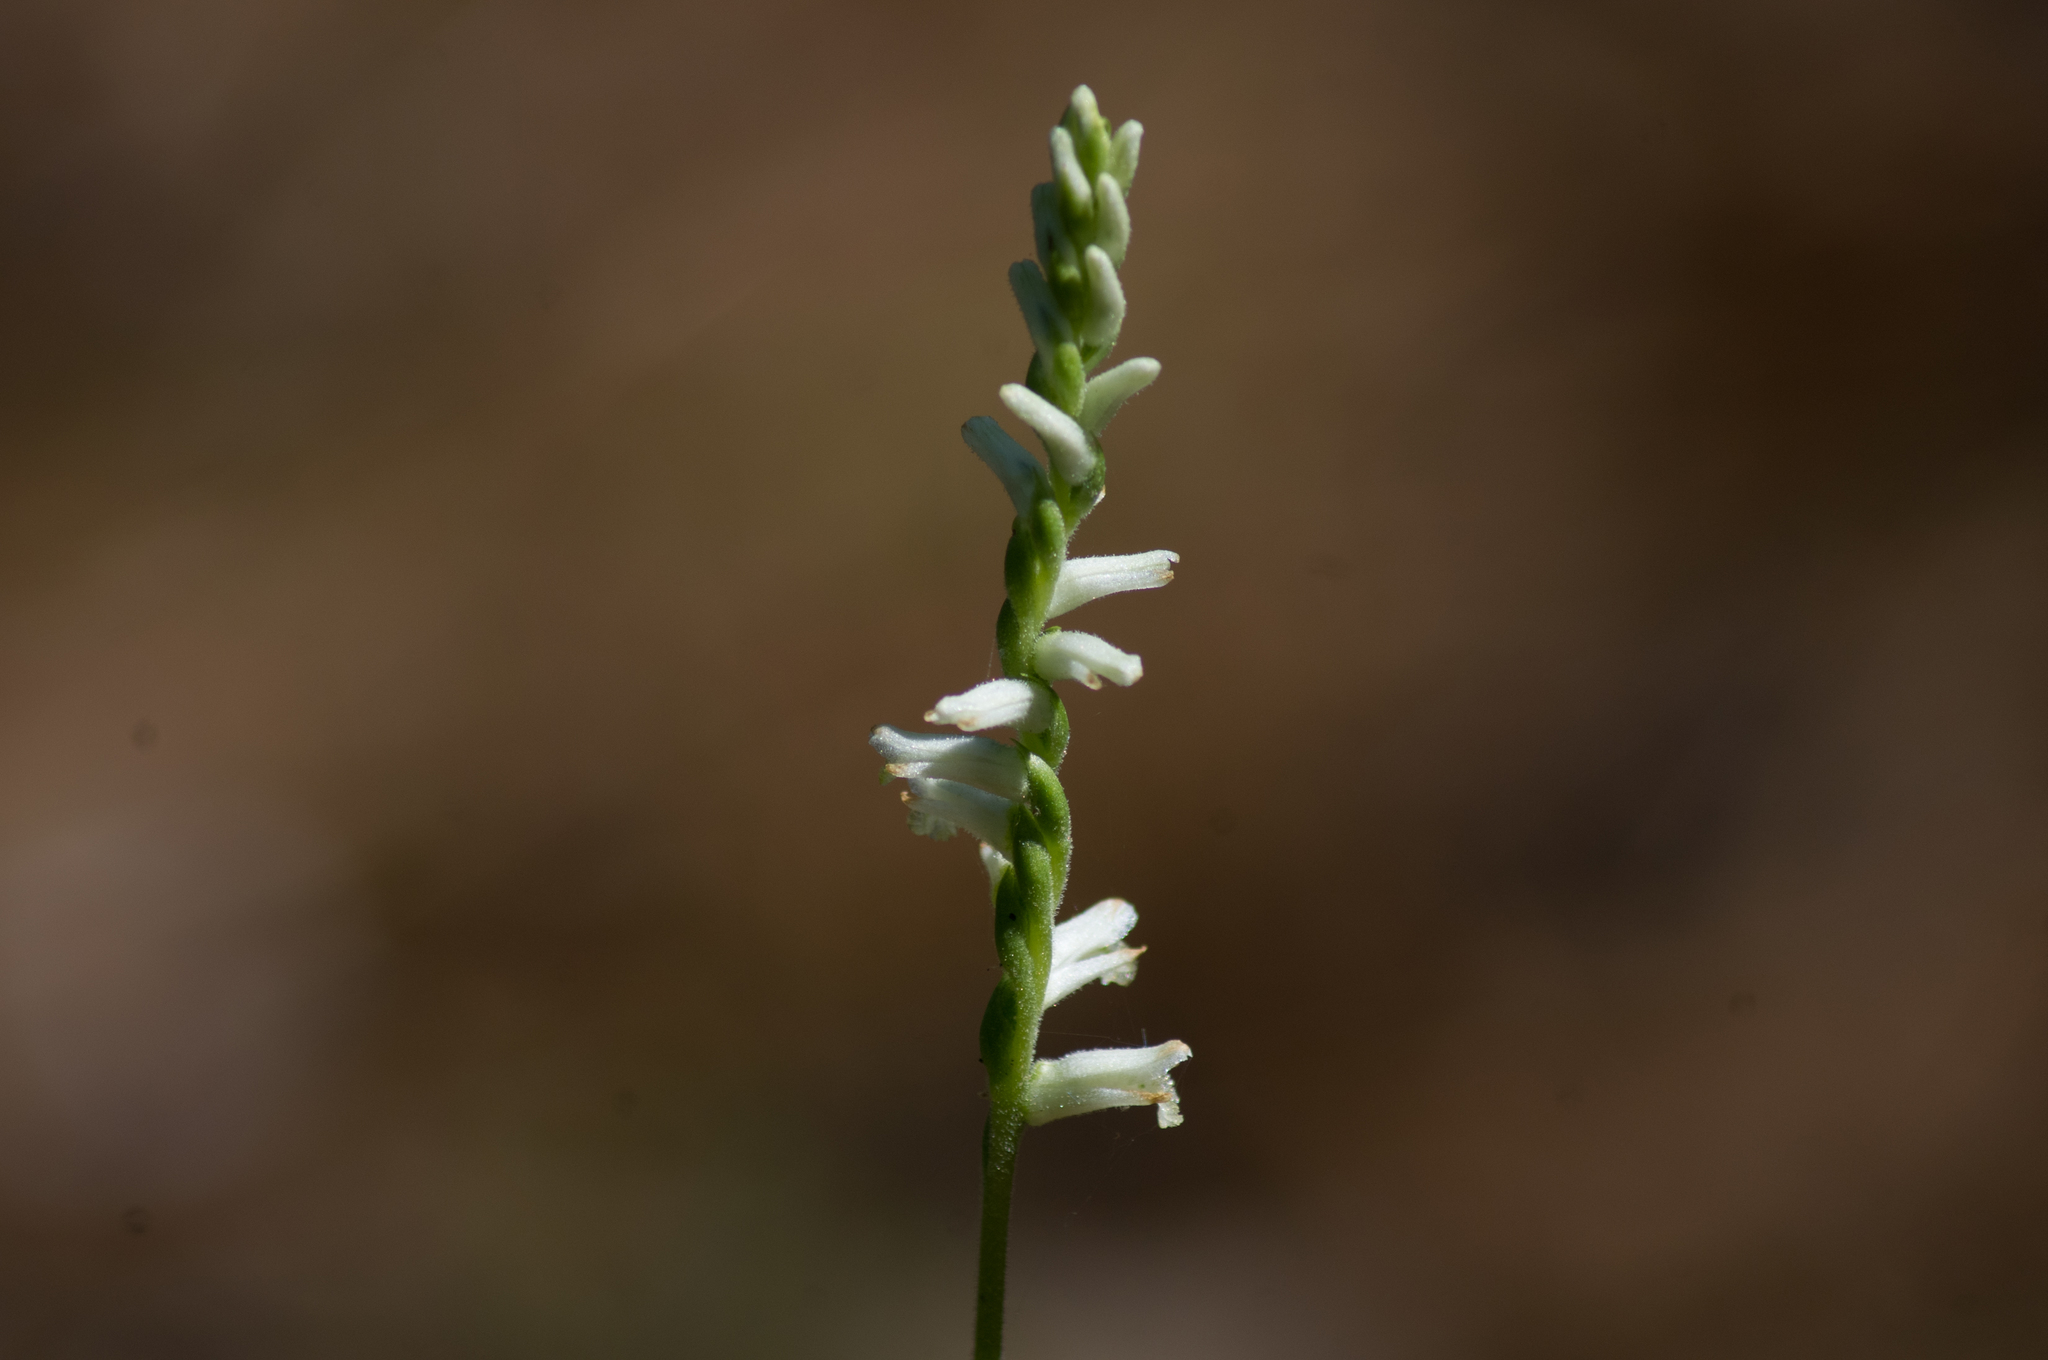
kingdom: Plantae
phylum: Tracheophyta
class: Liliopsida
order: Asparagales
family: Orchidaceae
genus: Spiranthes
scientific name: Spiranthes praecox
